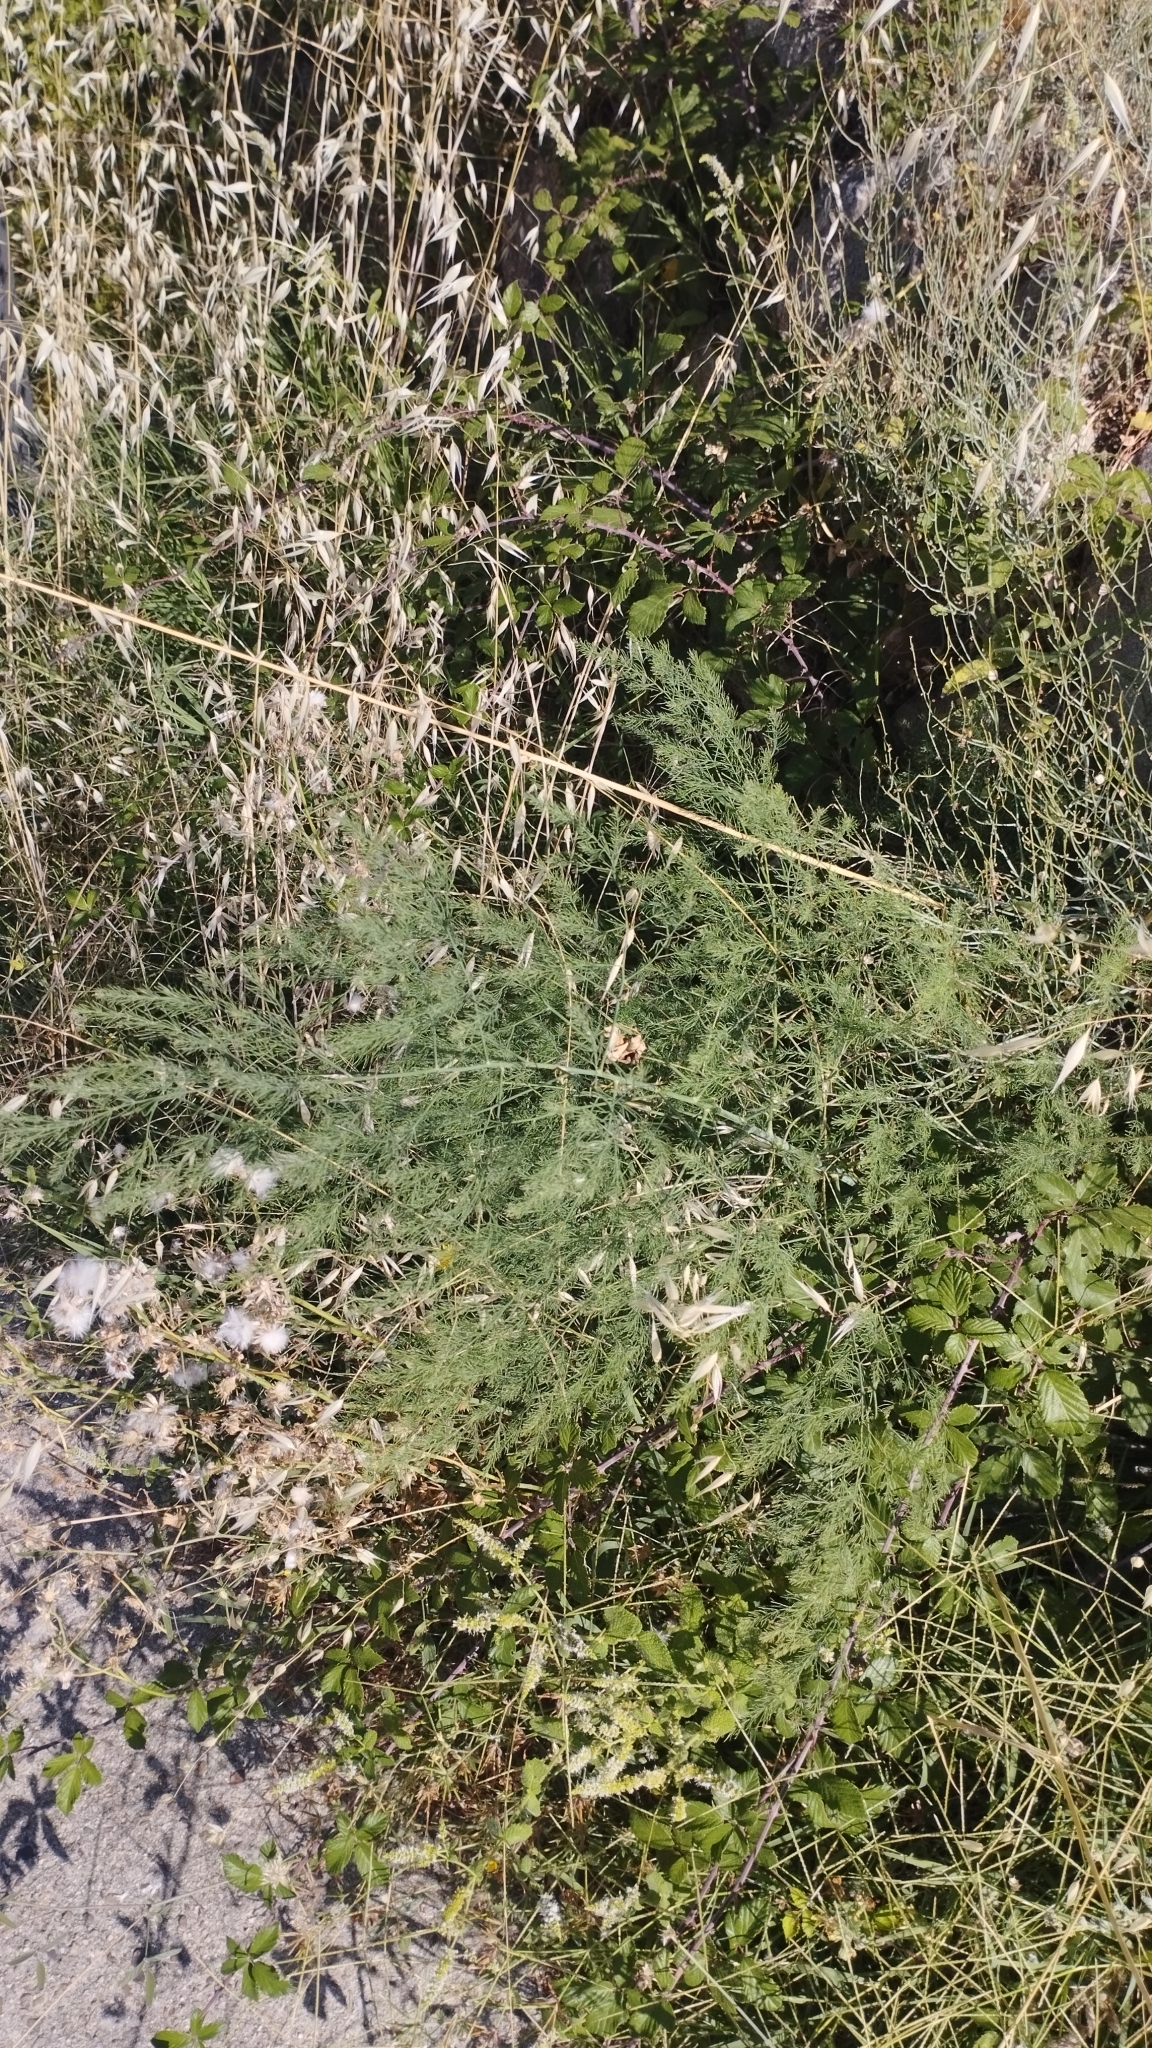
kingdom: Plantae
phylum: Tracheophyta
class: Liliopsida
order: Asparagales
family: Asparagaceae
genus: Asparagus
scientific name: Asparagus officinalis
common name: Garden asparagus
